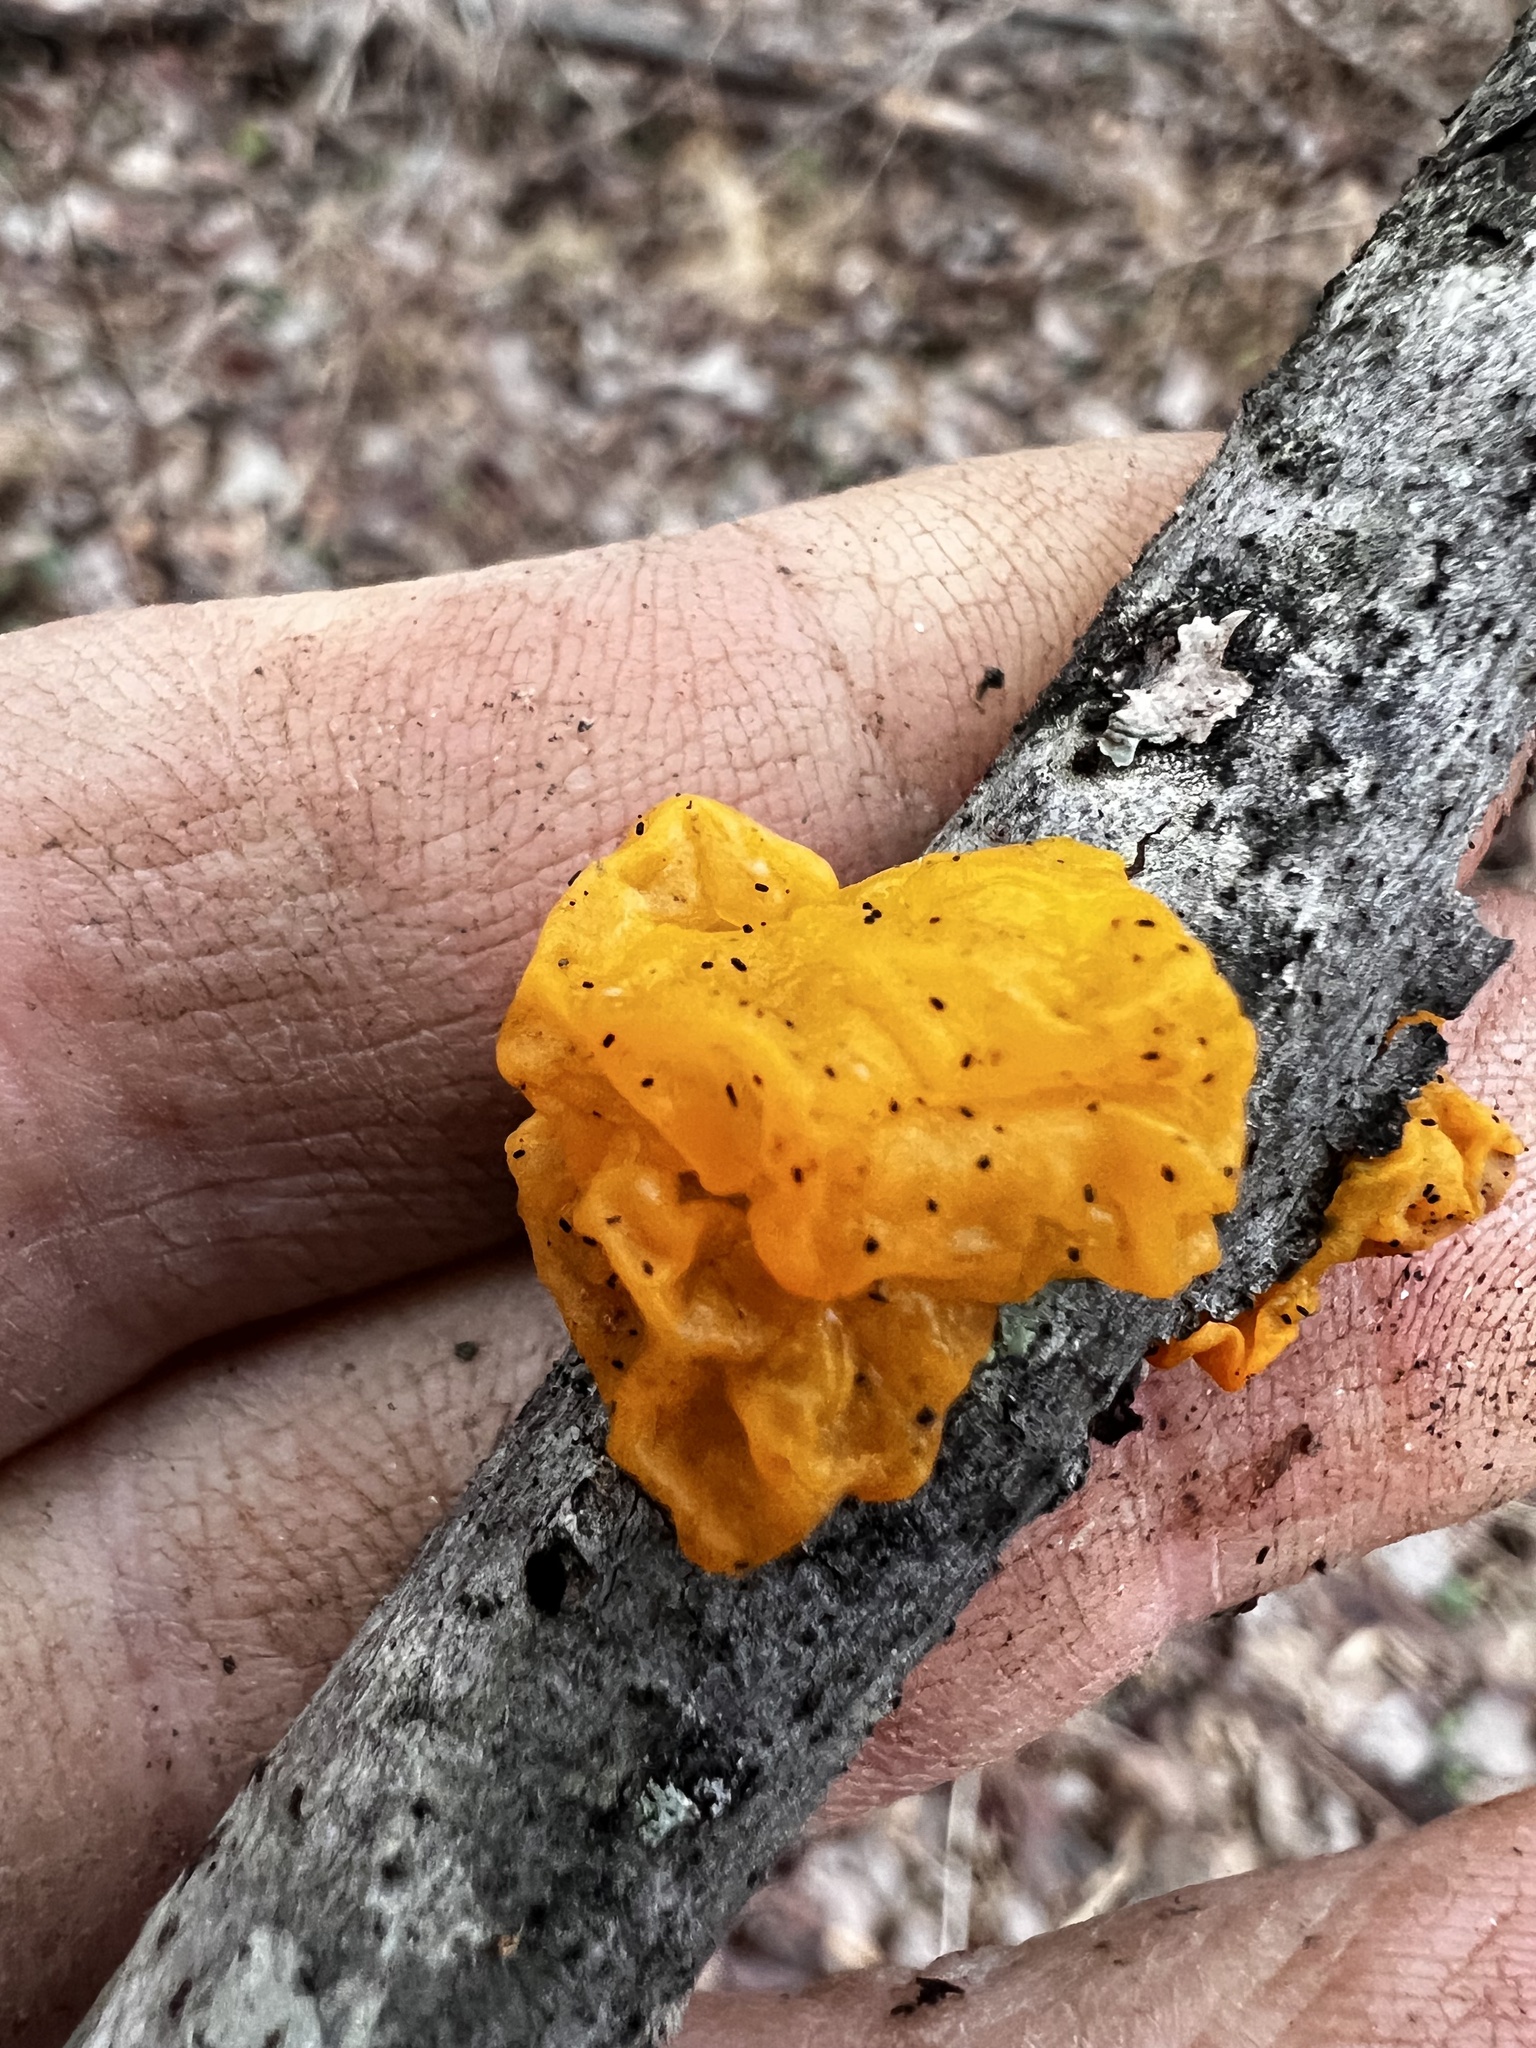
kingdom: Fungi
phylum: Basidiomycota
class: Tremellomycetes
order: Tremellales
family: Tremellaceae
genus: Tremella
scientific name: Tremella mesenterica
